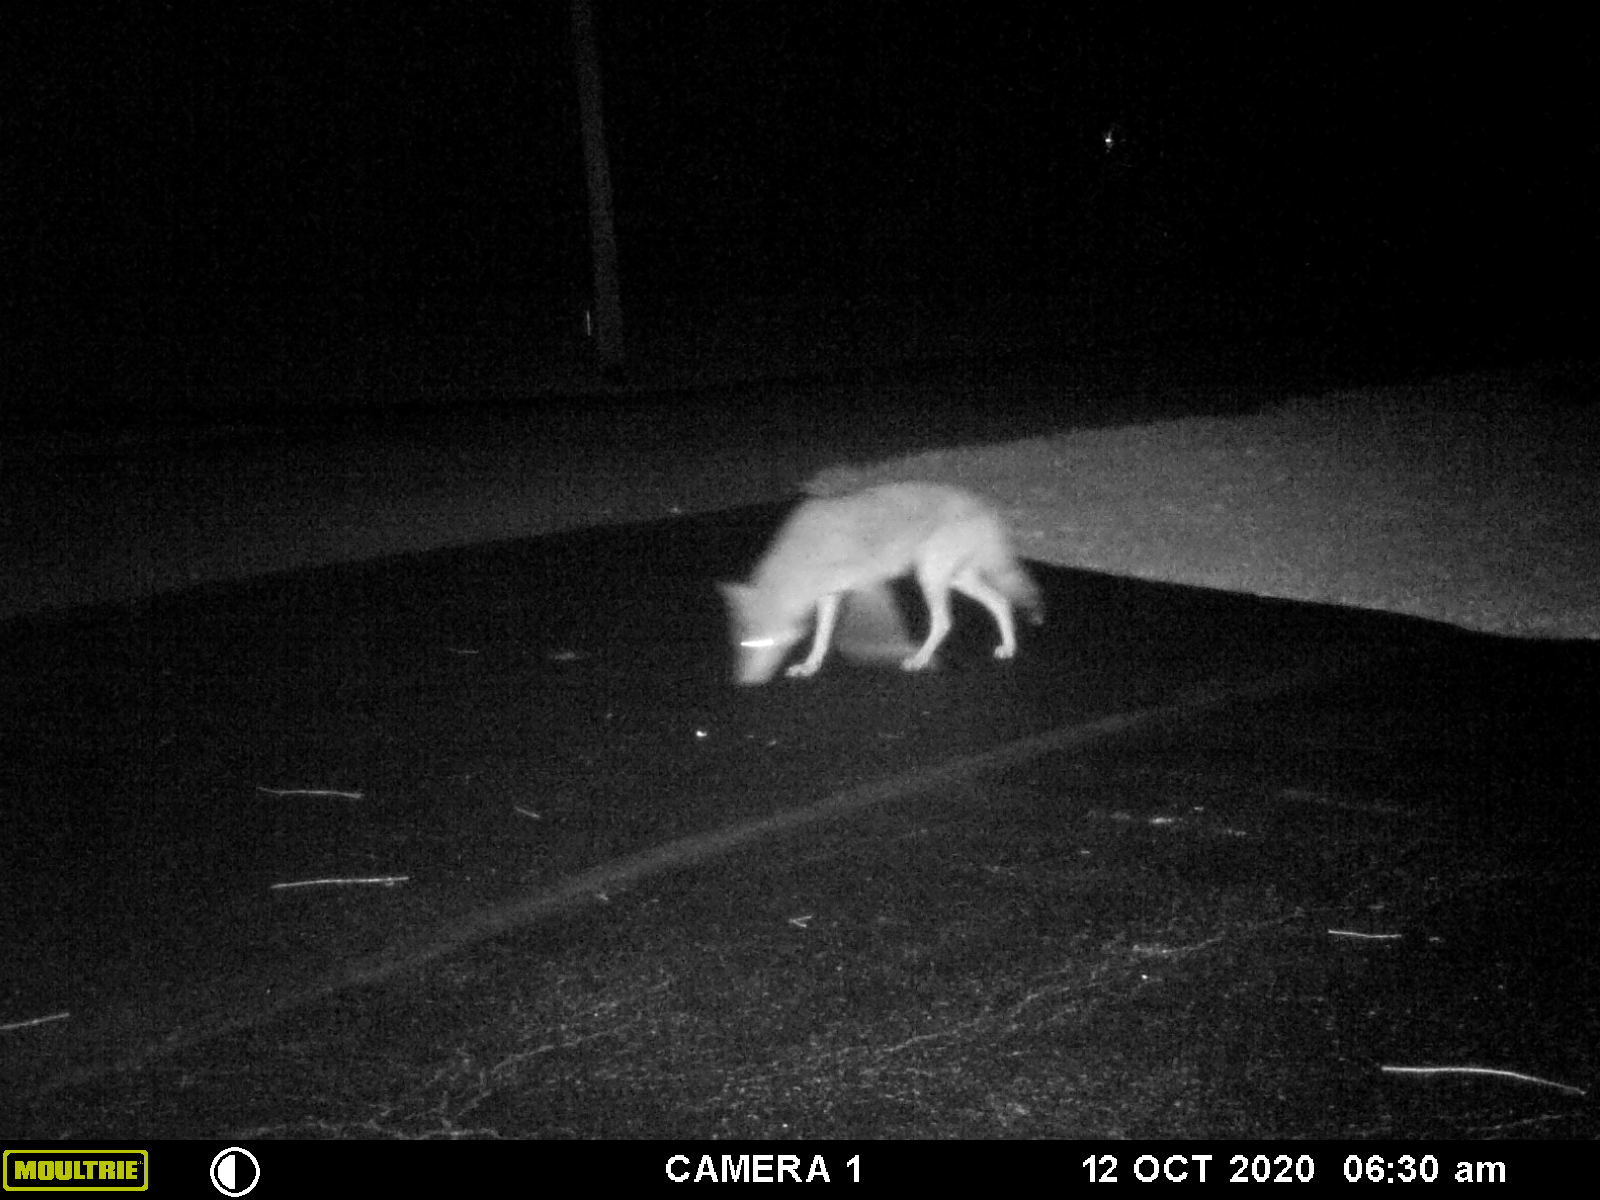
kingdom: Animalia
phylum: Chordata
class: Mammalia
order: Carnivora
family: Canidae
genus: Canis
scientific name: Canis latrans
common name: Coyote
